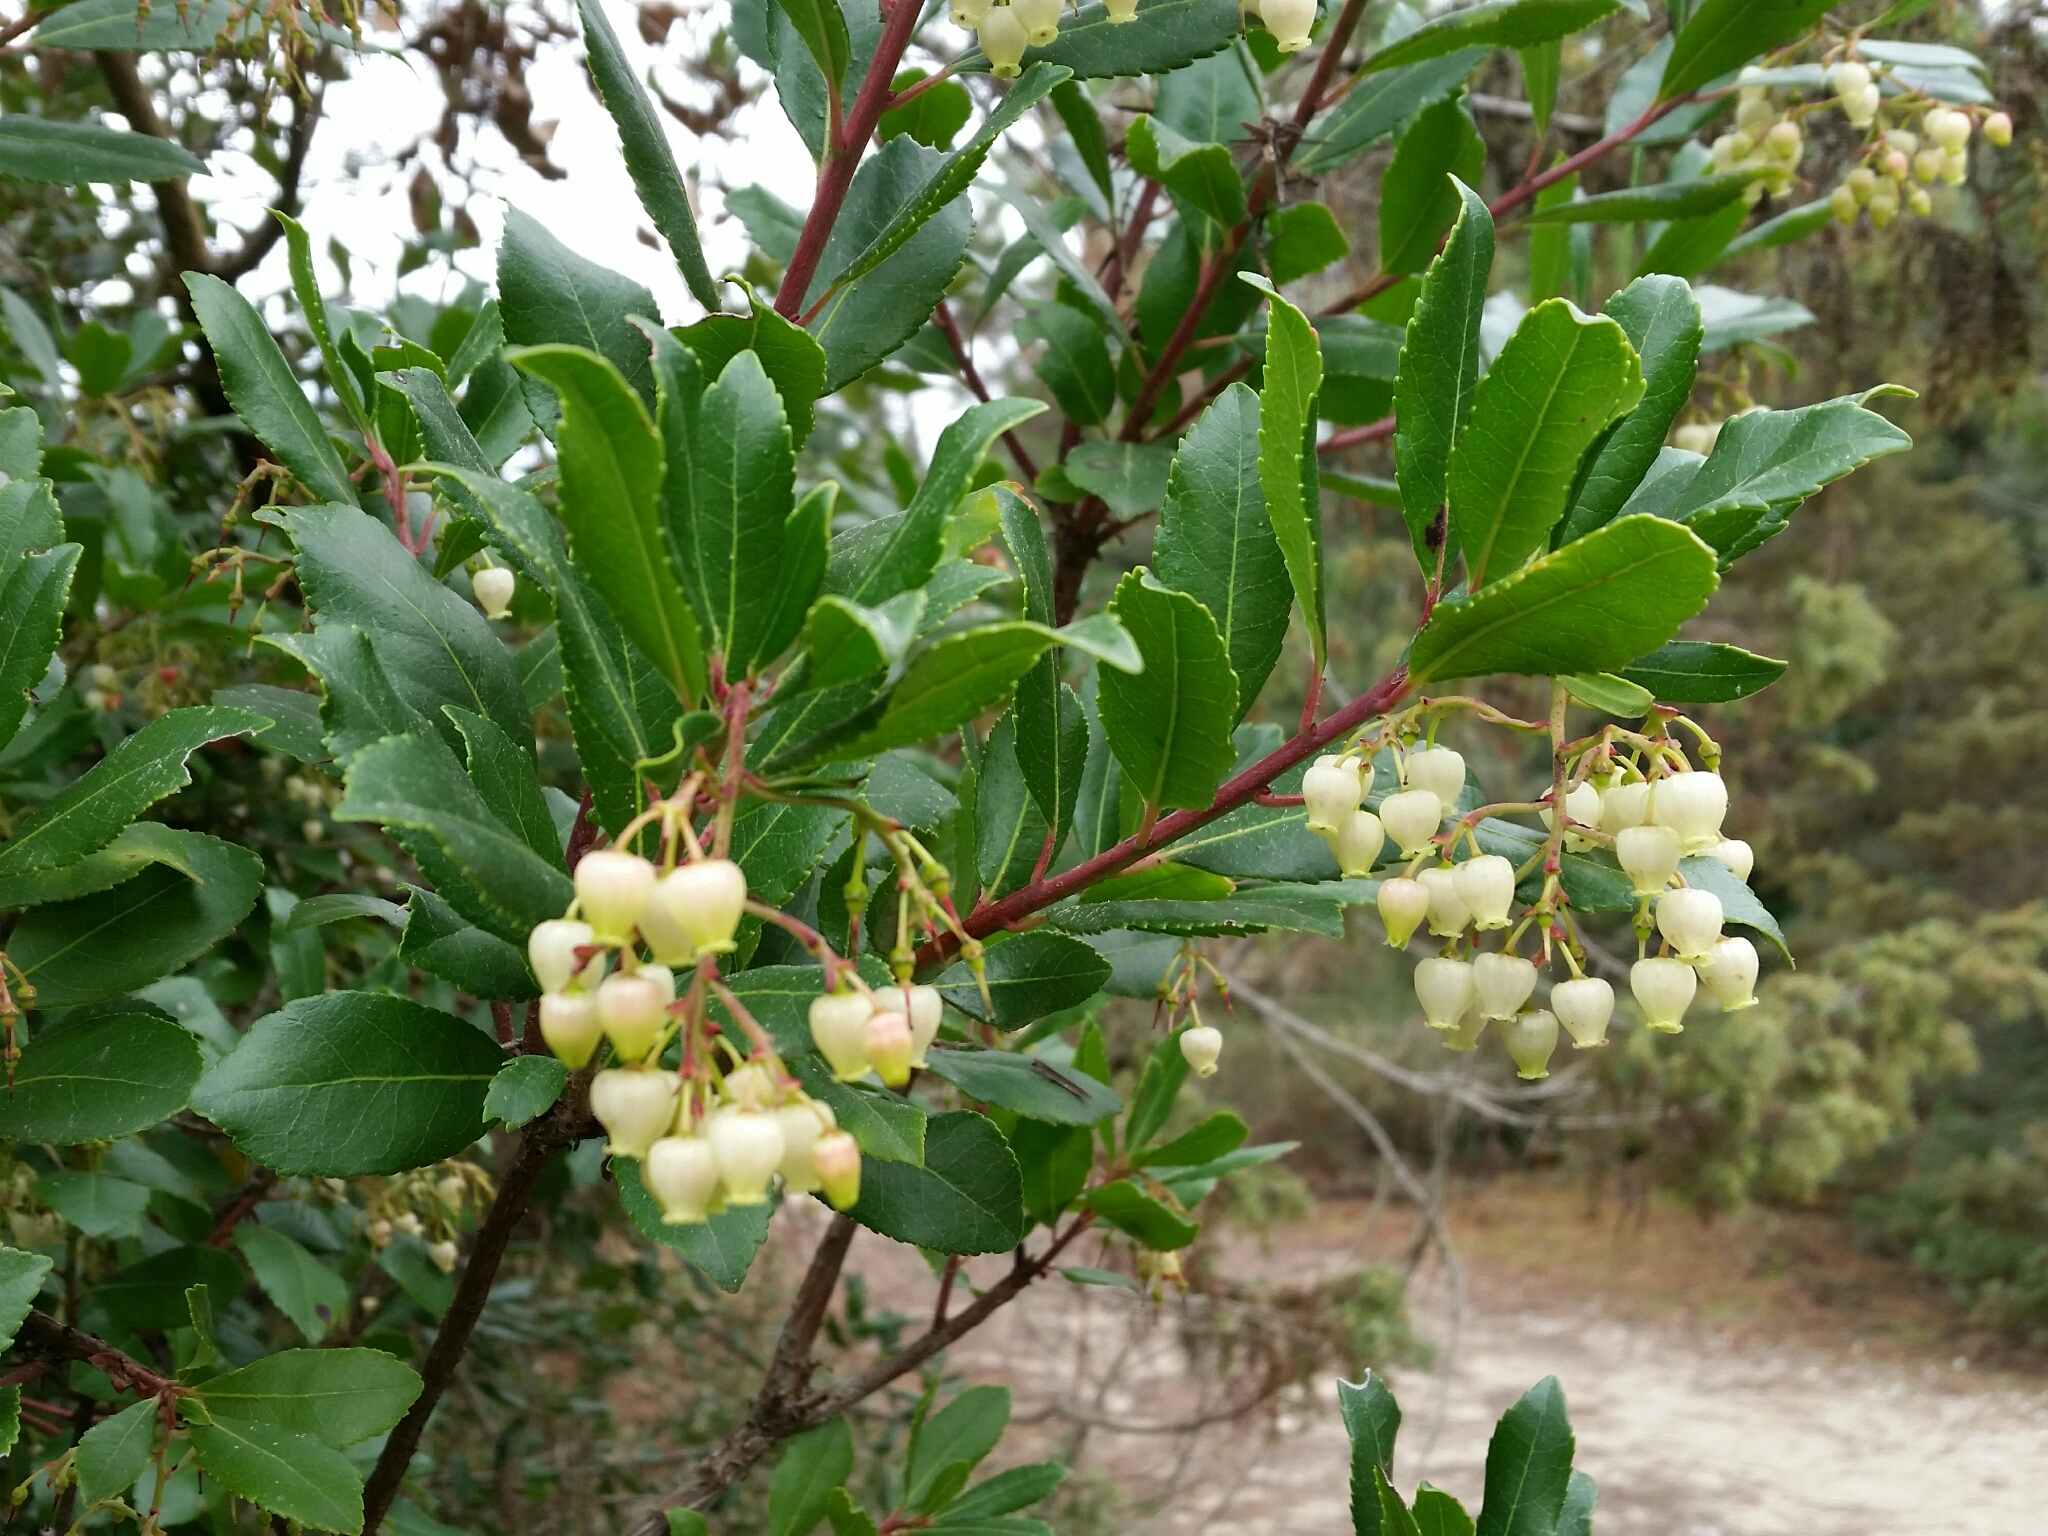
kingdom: Plantae
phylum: Tracheophyta
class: Magnoliopsida
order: Ericales
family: Ericaceae
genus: Arbutus
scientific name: Arbutus unedo
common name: Strawberry-tree
